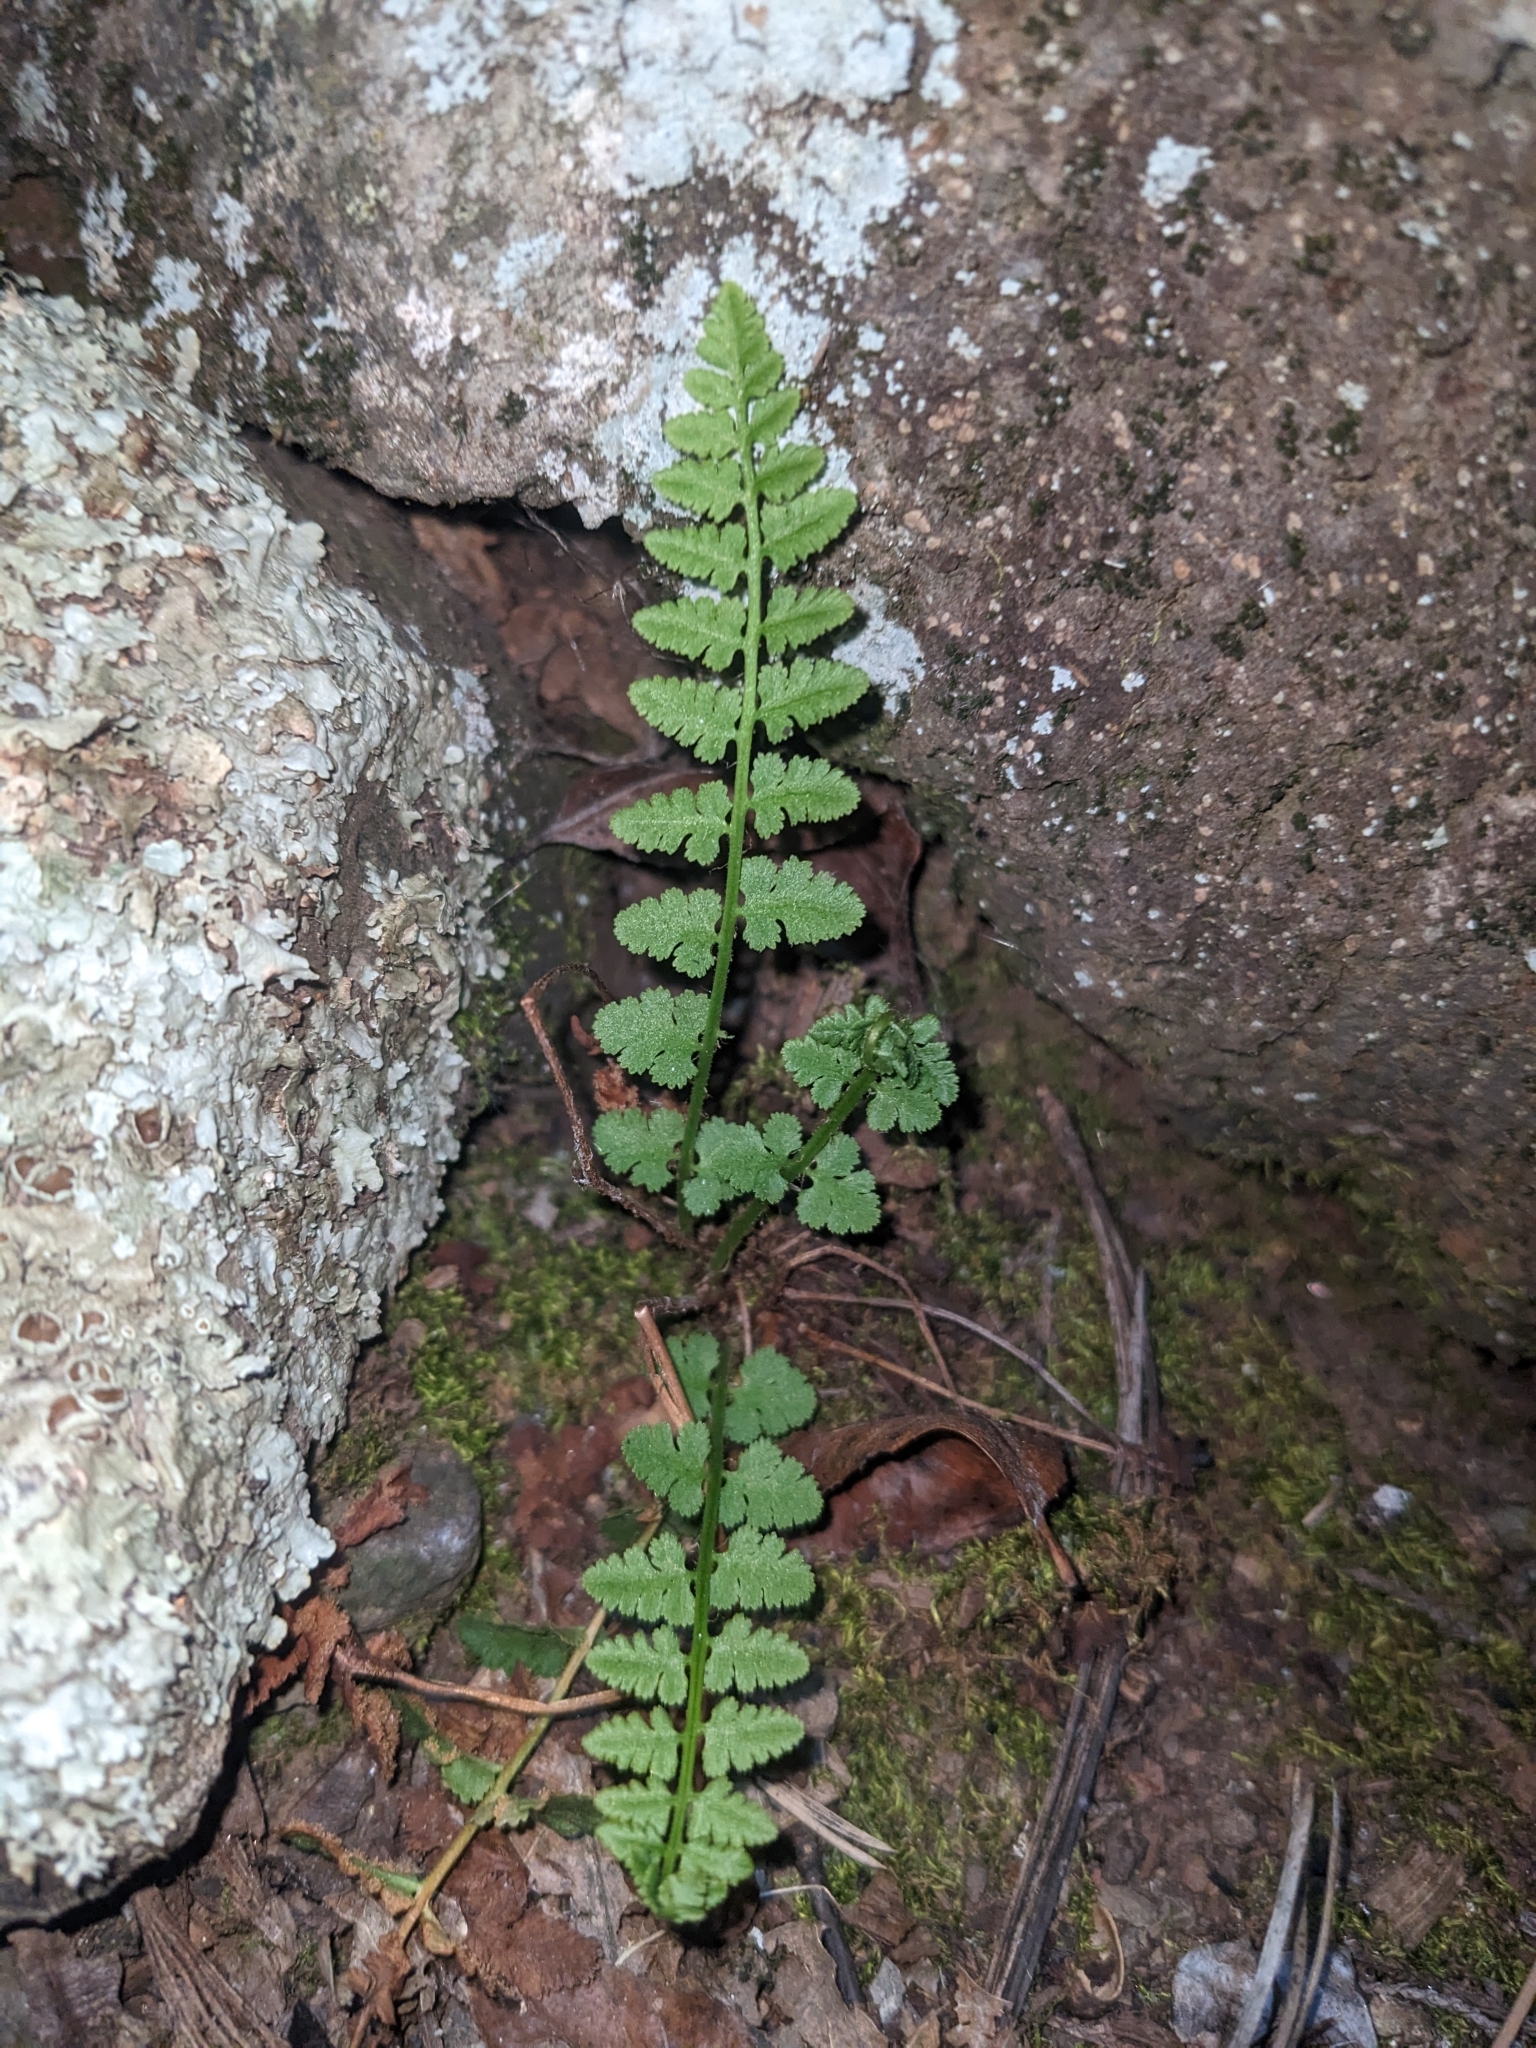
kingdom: Plantae
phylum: Tracheophyta
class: Polypodiopsida
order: Polypodiales
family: Woodsiaceae
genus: Physematium
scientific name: Physematium neomexicanum
